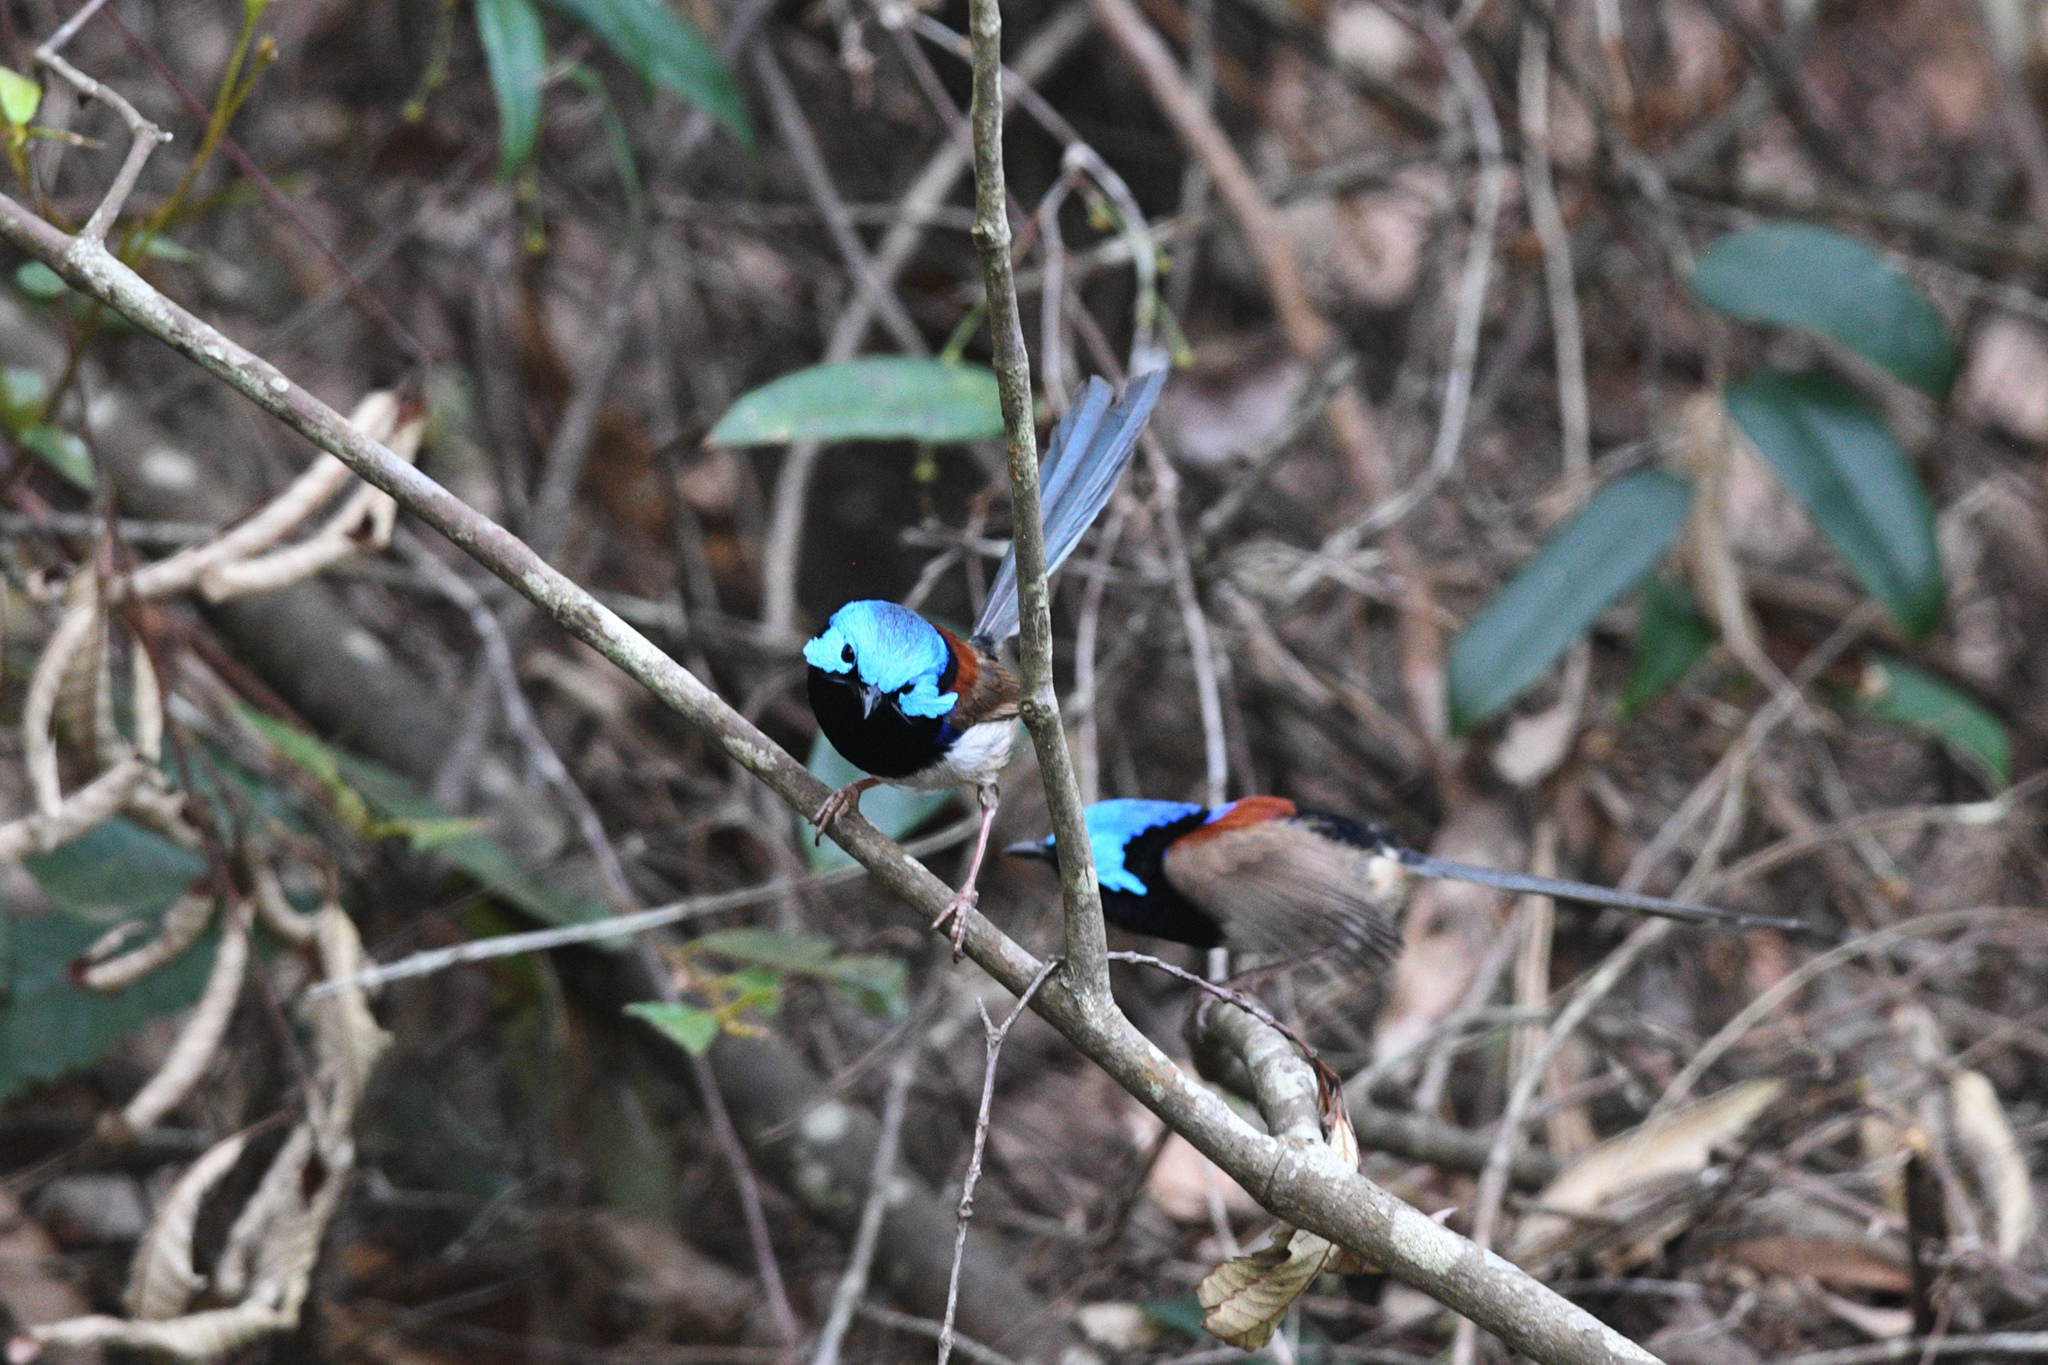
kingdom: Animalia
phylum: Chordata
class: Aves
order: Passeriformes
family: Maluridae
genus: Malurus
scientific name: Malurus lamberti
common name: Variegated fairywren
